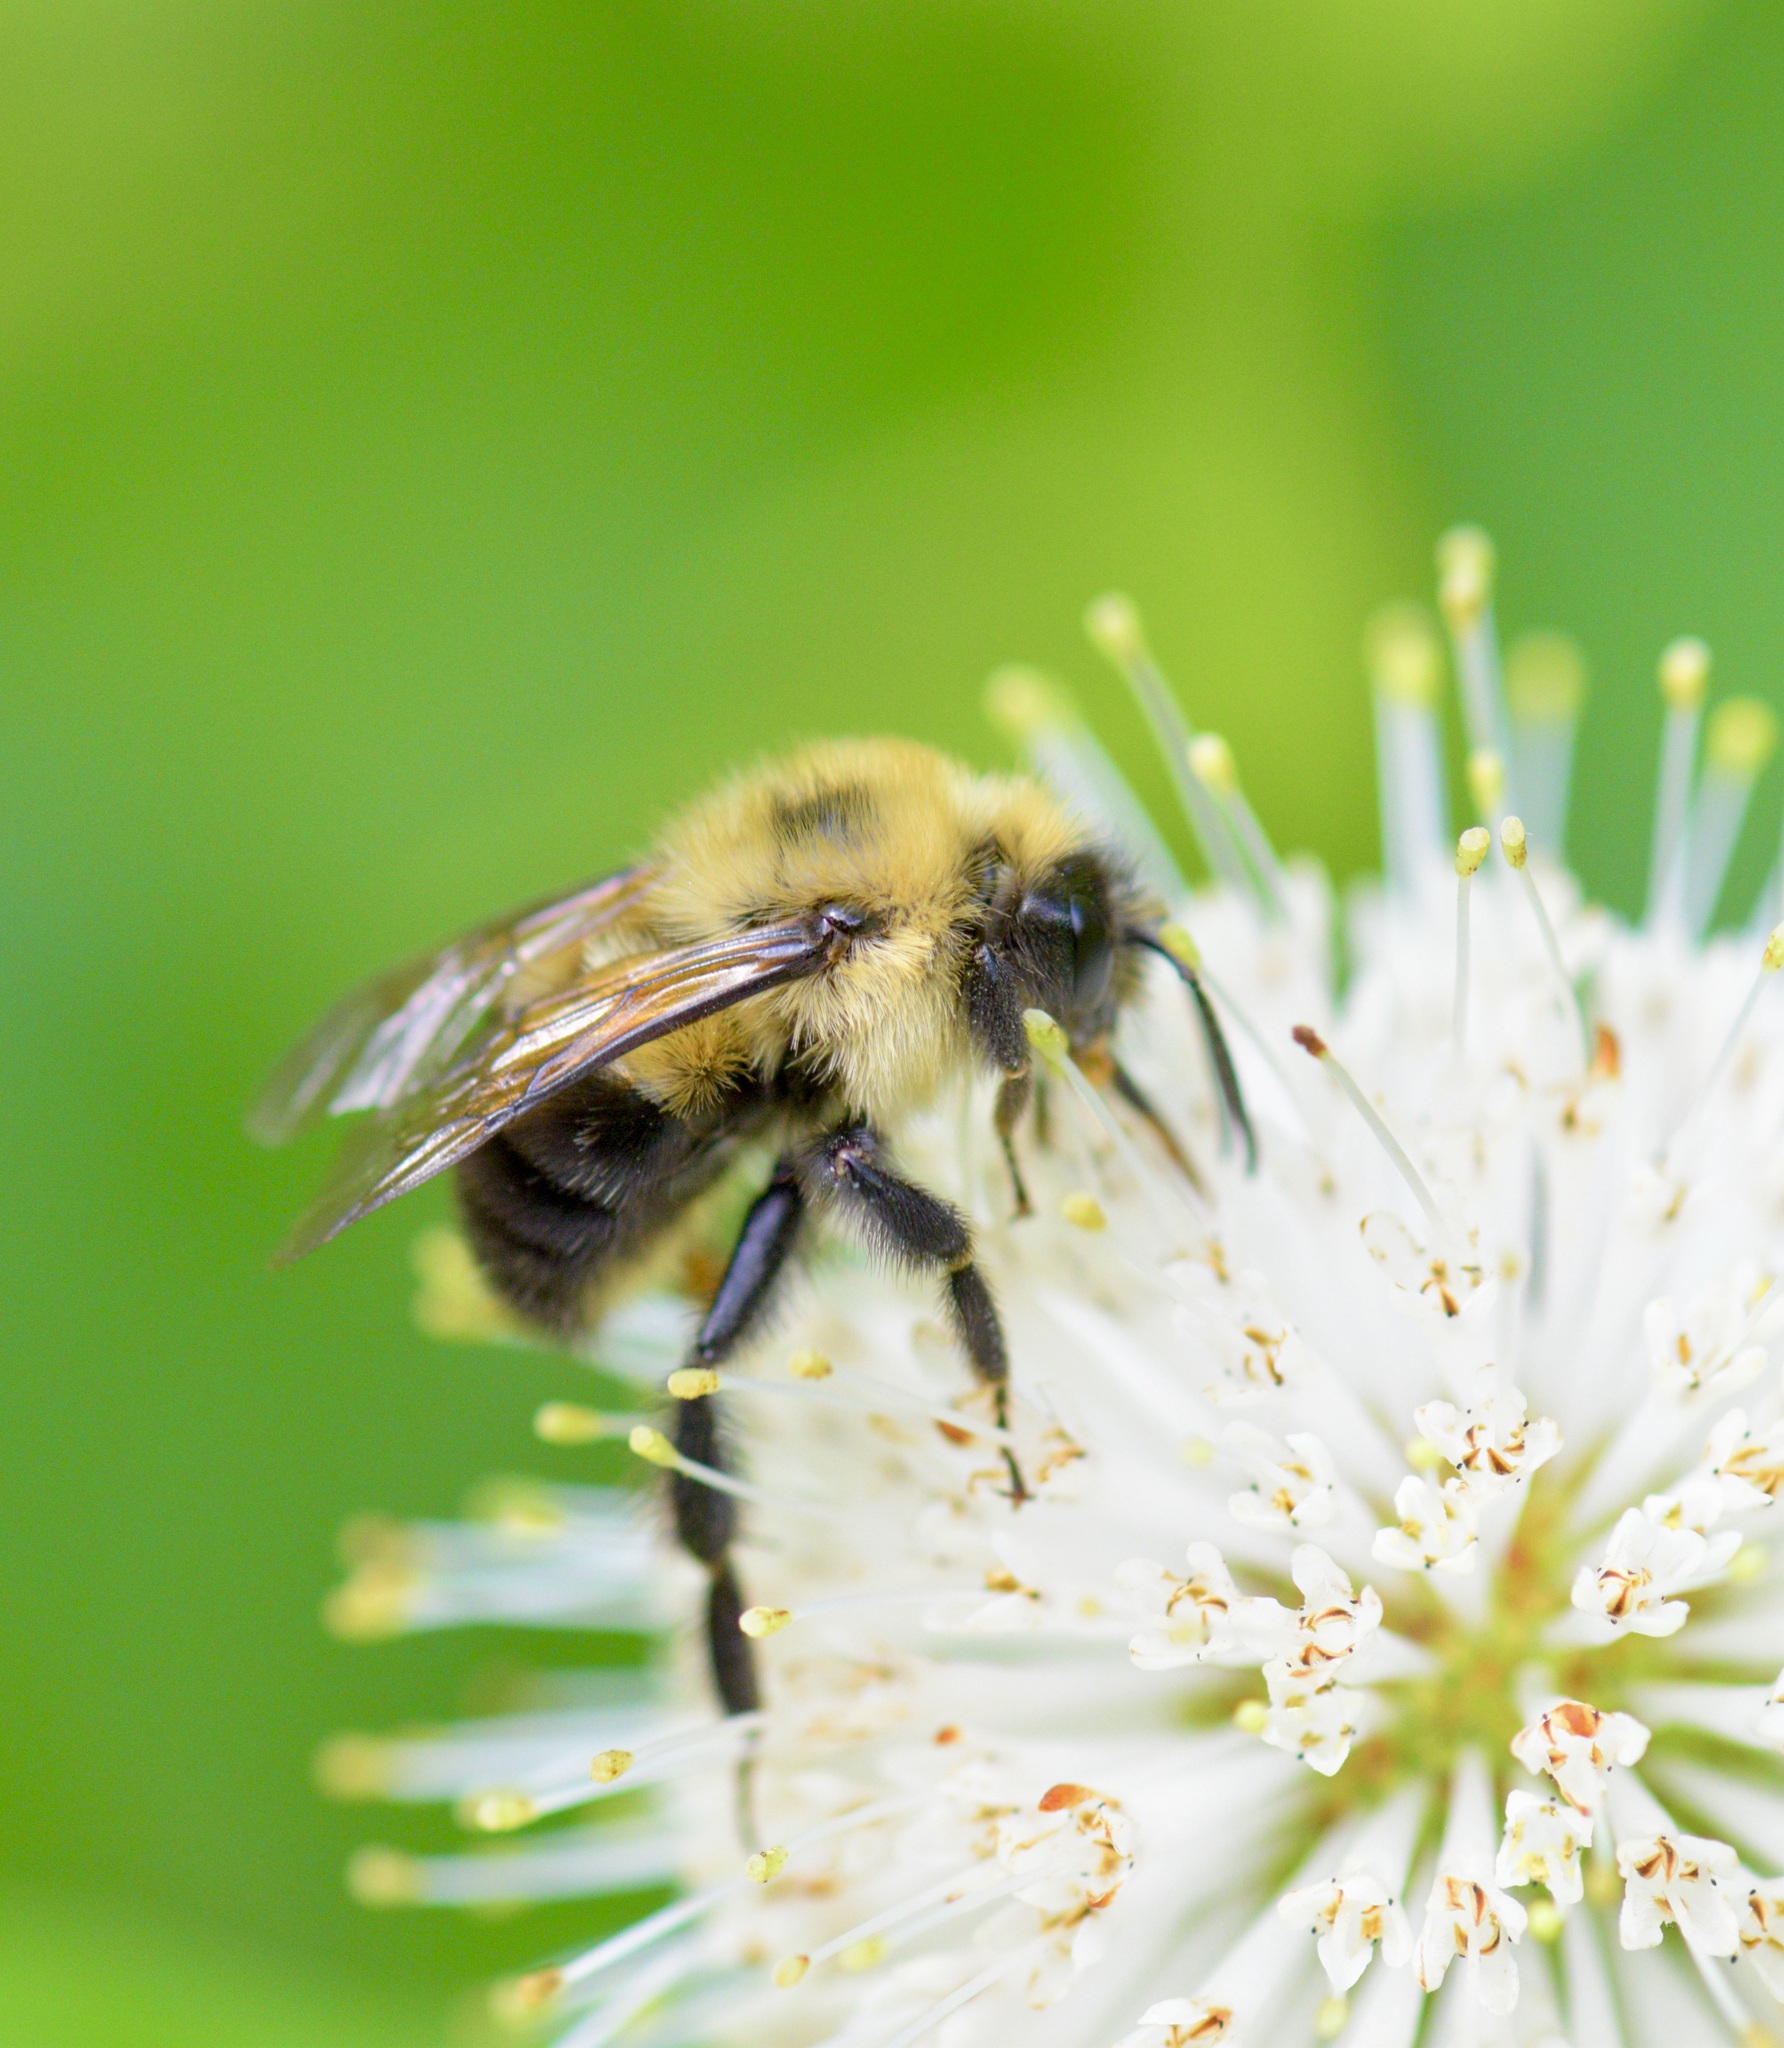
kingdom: Animalia
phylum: Arthropoda
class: Insecta
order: Hymenoptera
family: Apidae
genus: Bombus
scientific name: Bombus bimaculatus
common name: Two-spotted bumble bee
